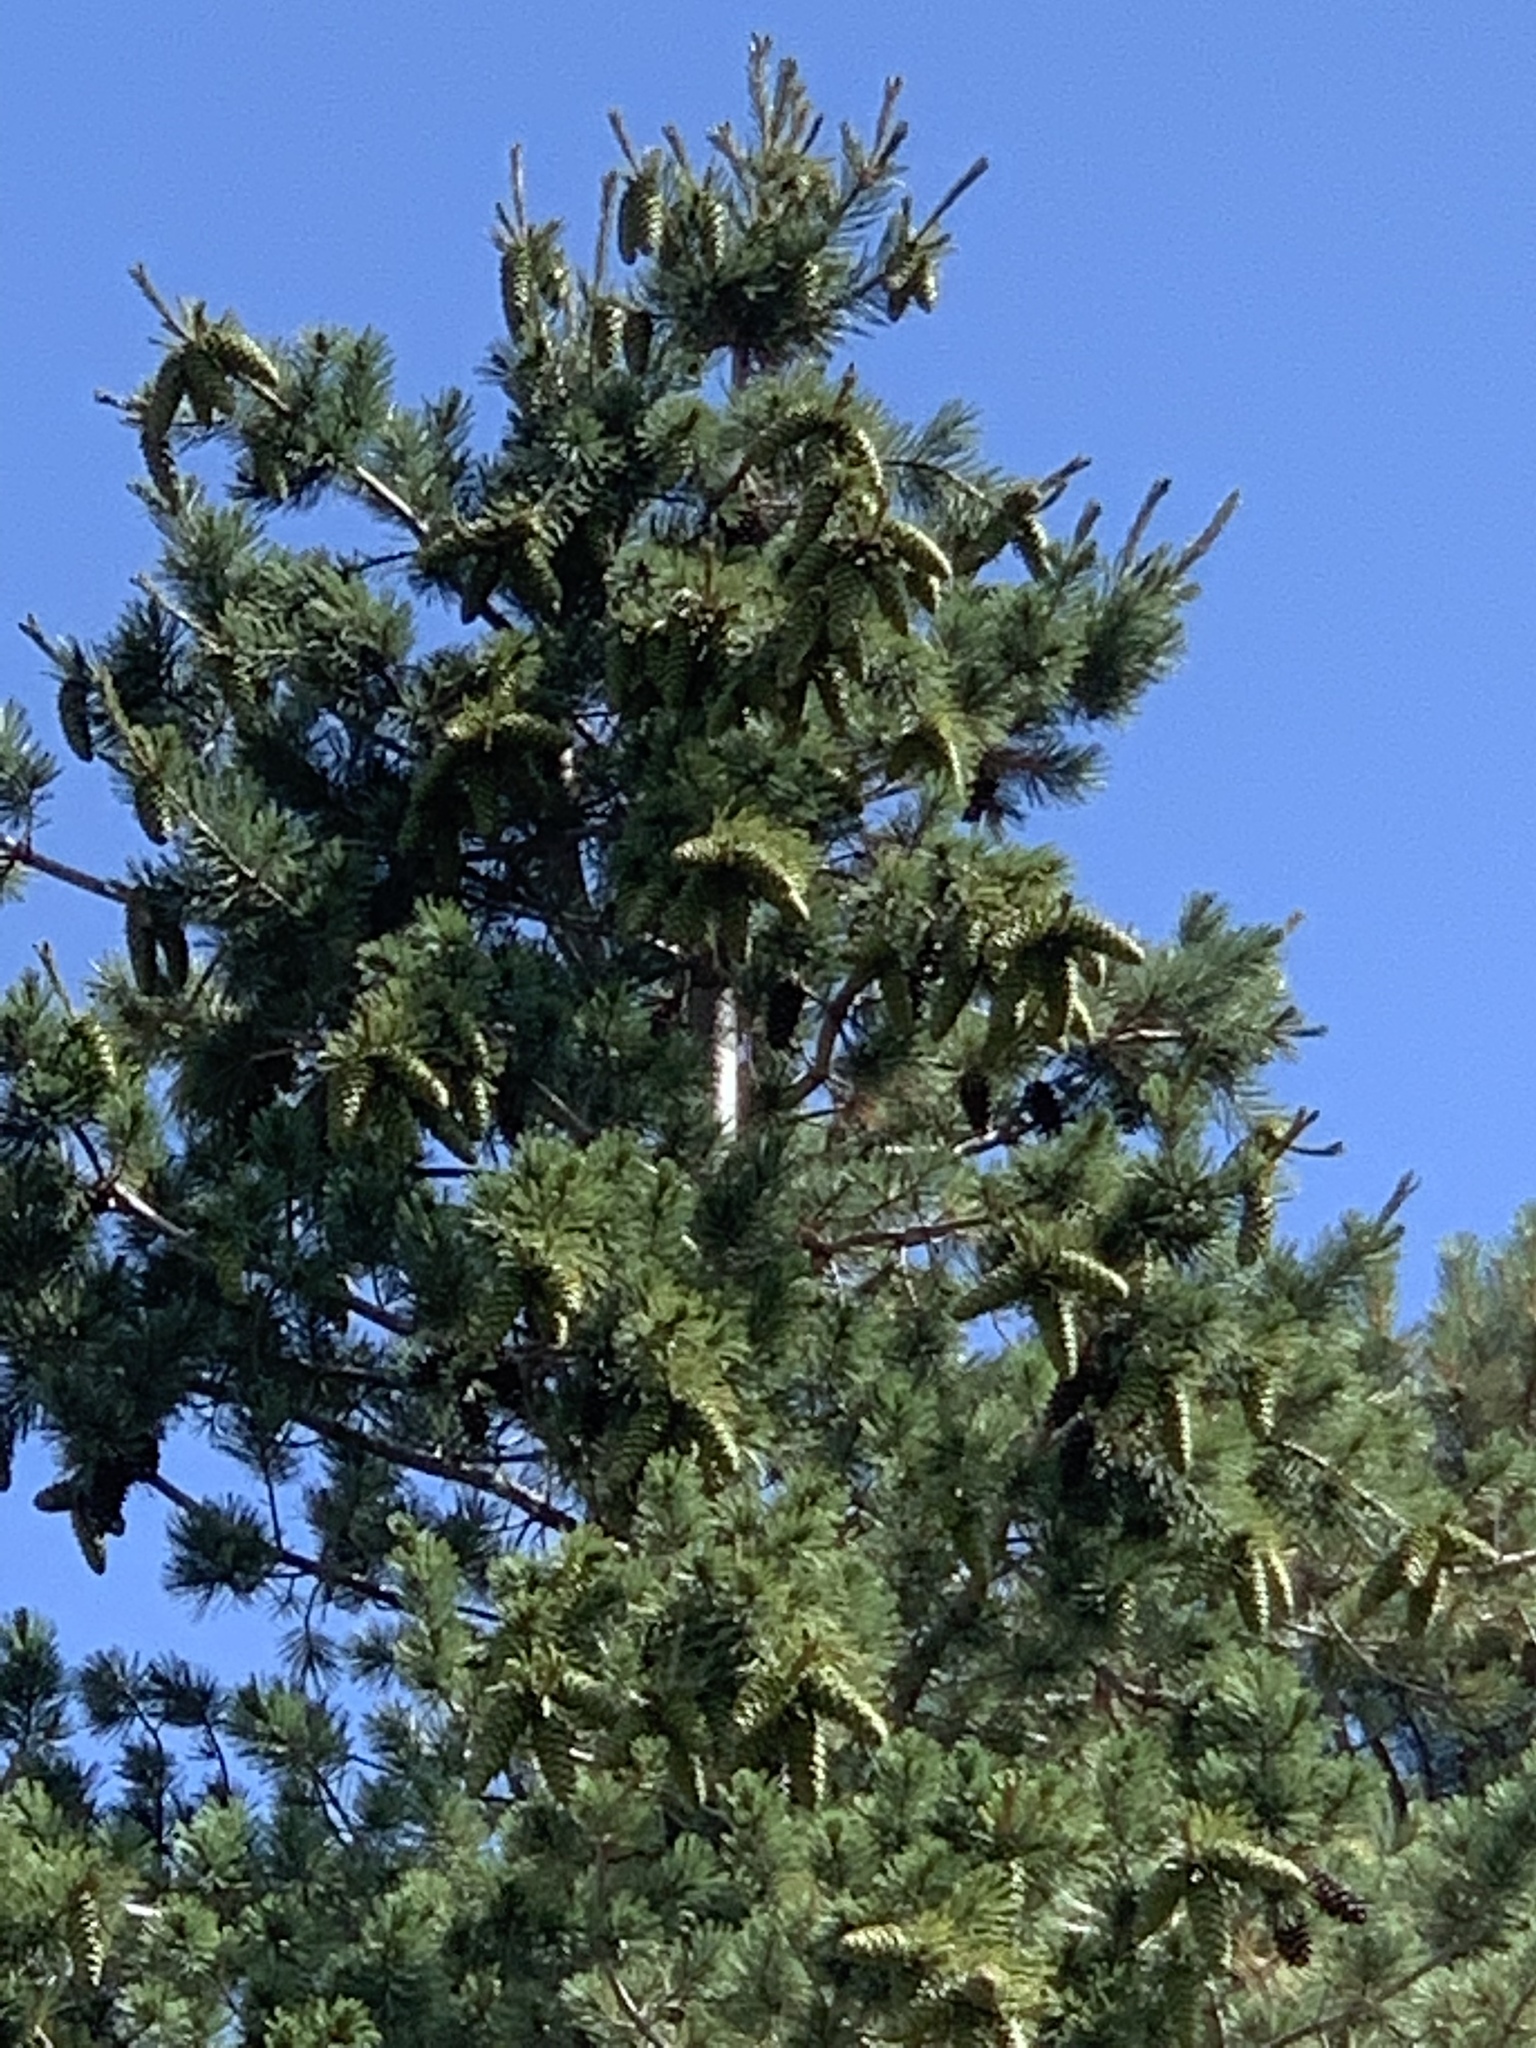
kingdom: Plantae
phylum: Tracheophyta
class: Pinopsida
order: Pinales
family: Pinaceae
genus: Pinus
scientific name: Pinus strobiformis
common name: Southwestern white pine
